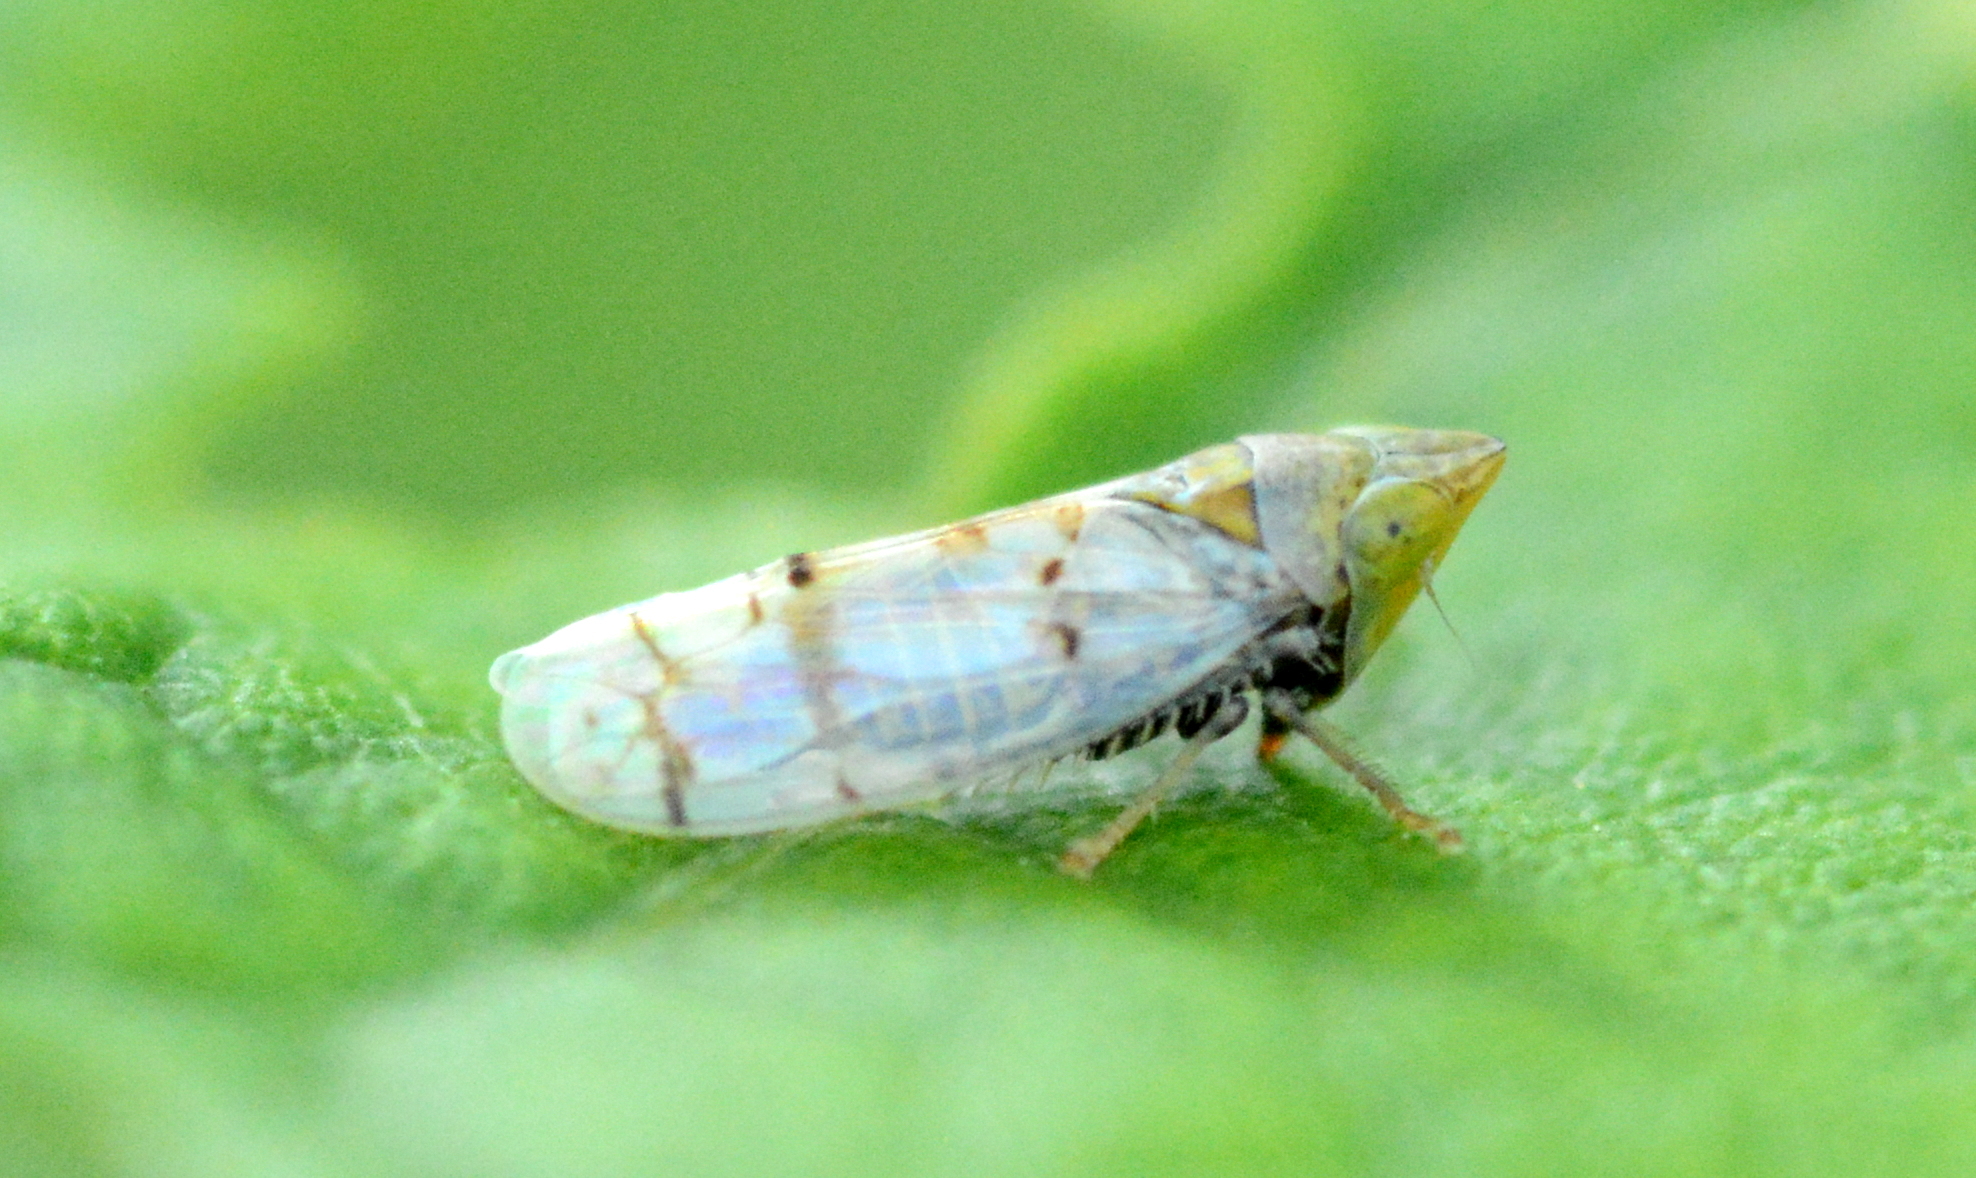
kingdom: Animalia
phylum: Arthropoda
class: Insecta
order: Hemiptera
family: Cicadellidae
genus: Japananus
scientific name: Japananus hyalinus
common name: The japanese maple leafhopper
